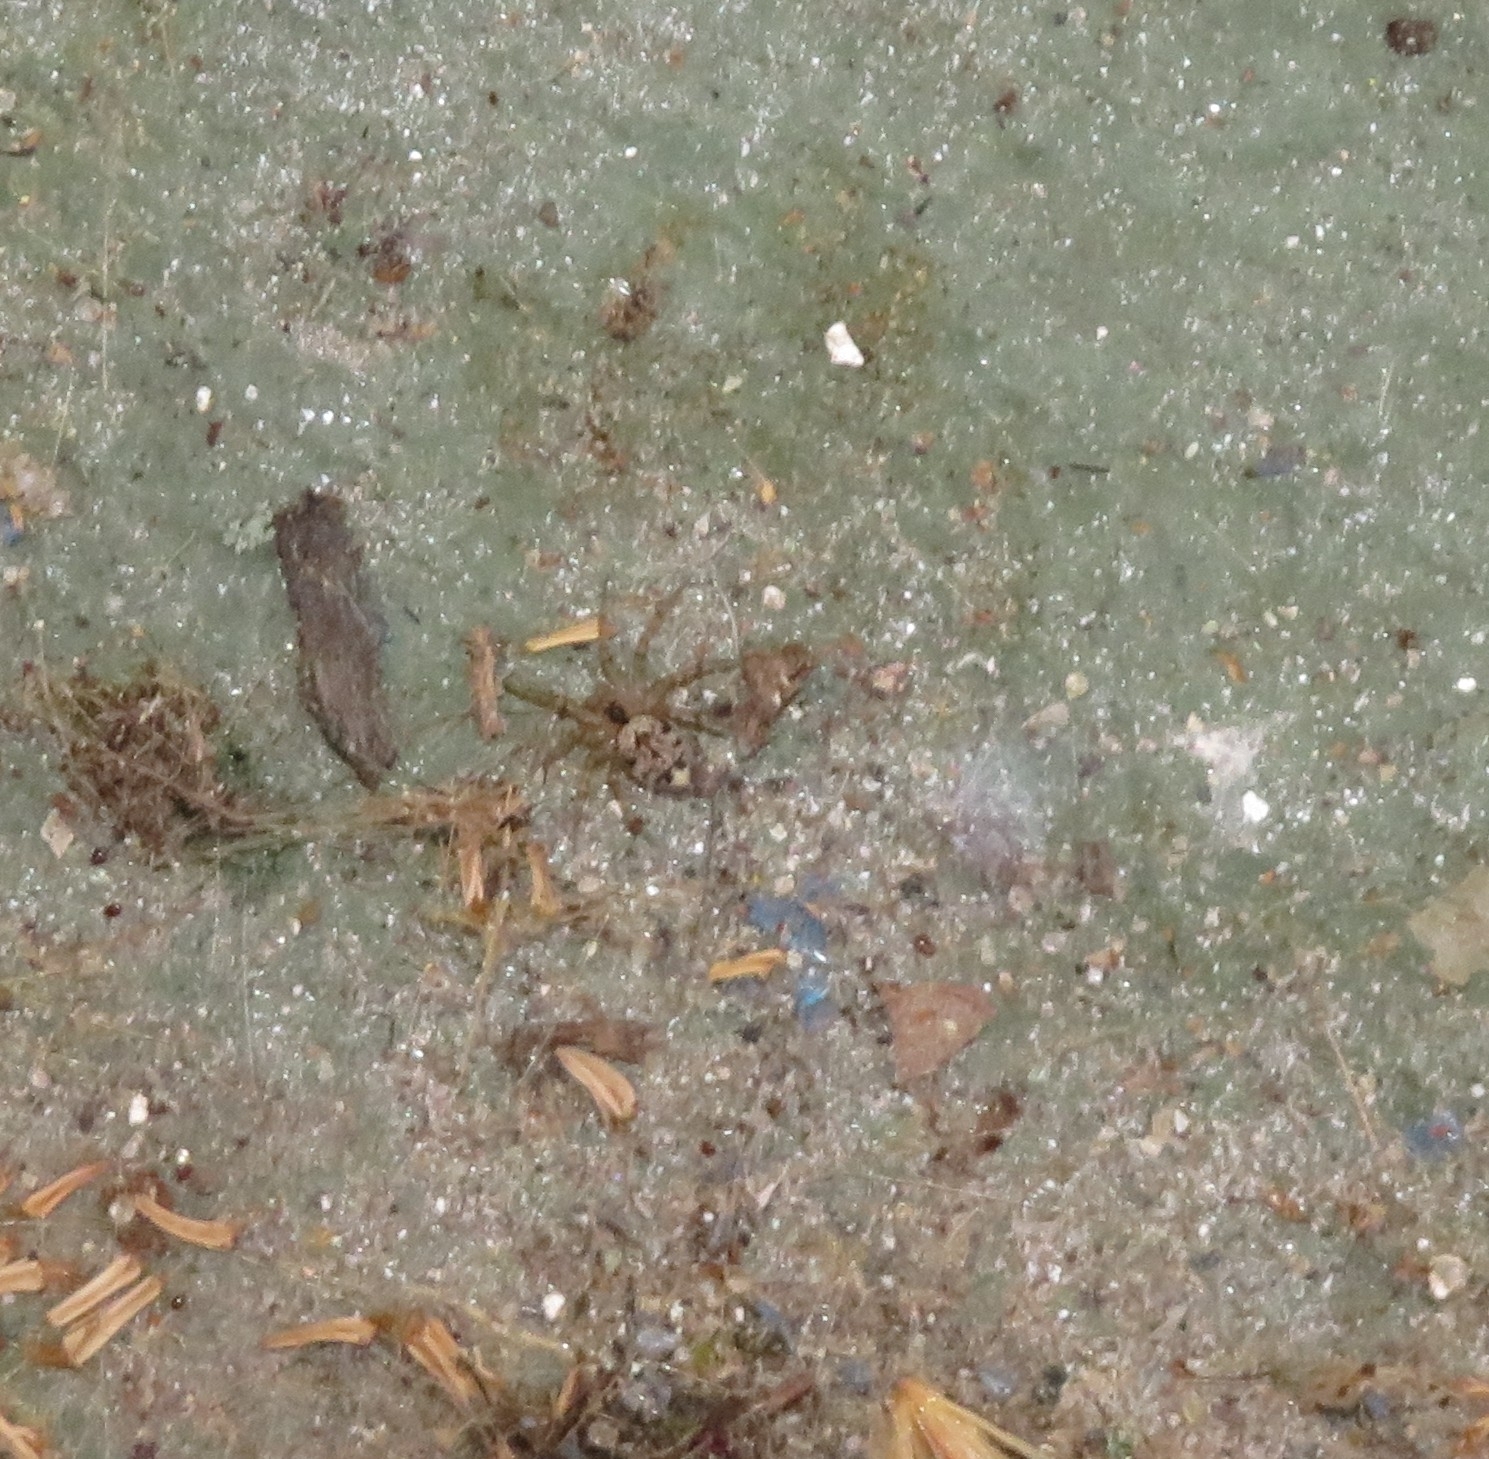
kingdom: Animalia
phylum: Arthropoda
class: Arachnida
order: Araneae
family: Oecobiidae
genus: Oecobius
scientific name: Oecobius navus
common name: Flatmesh weaver
